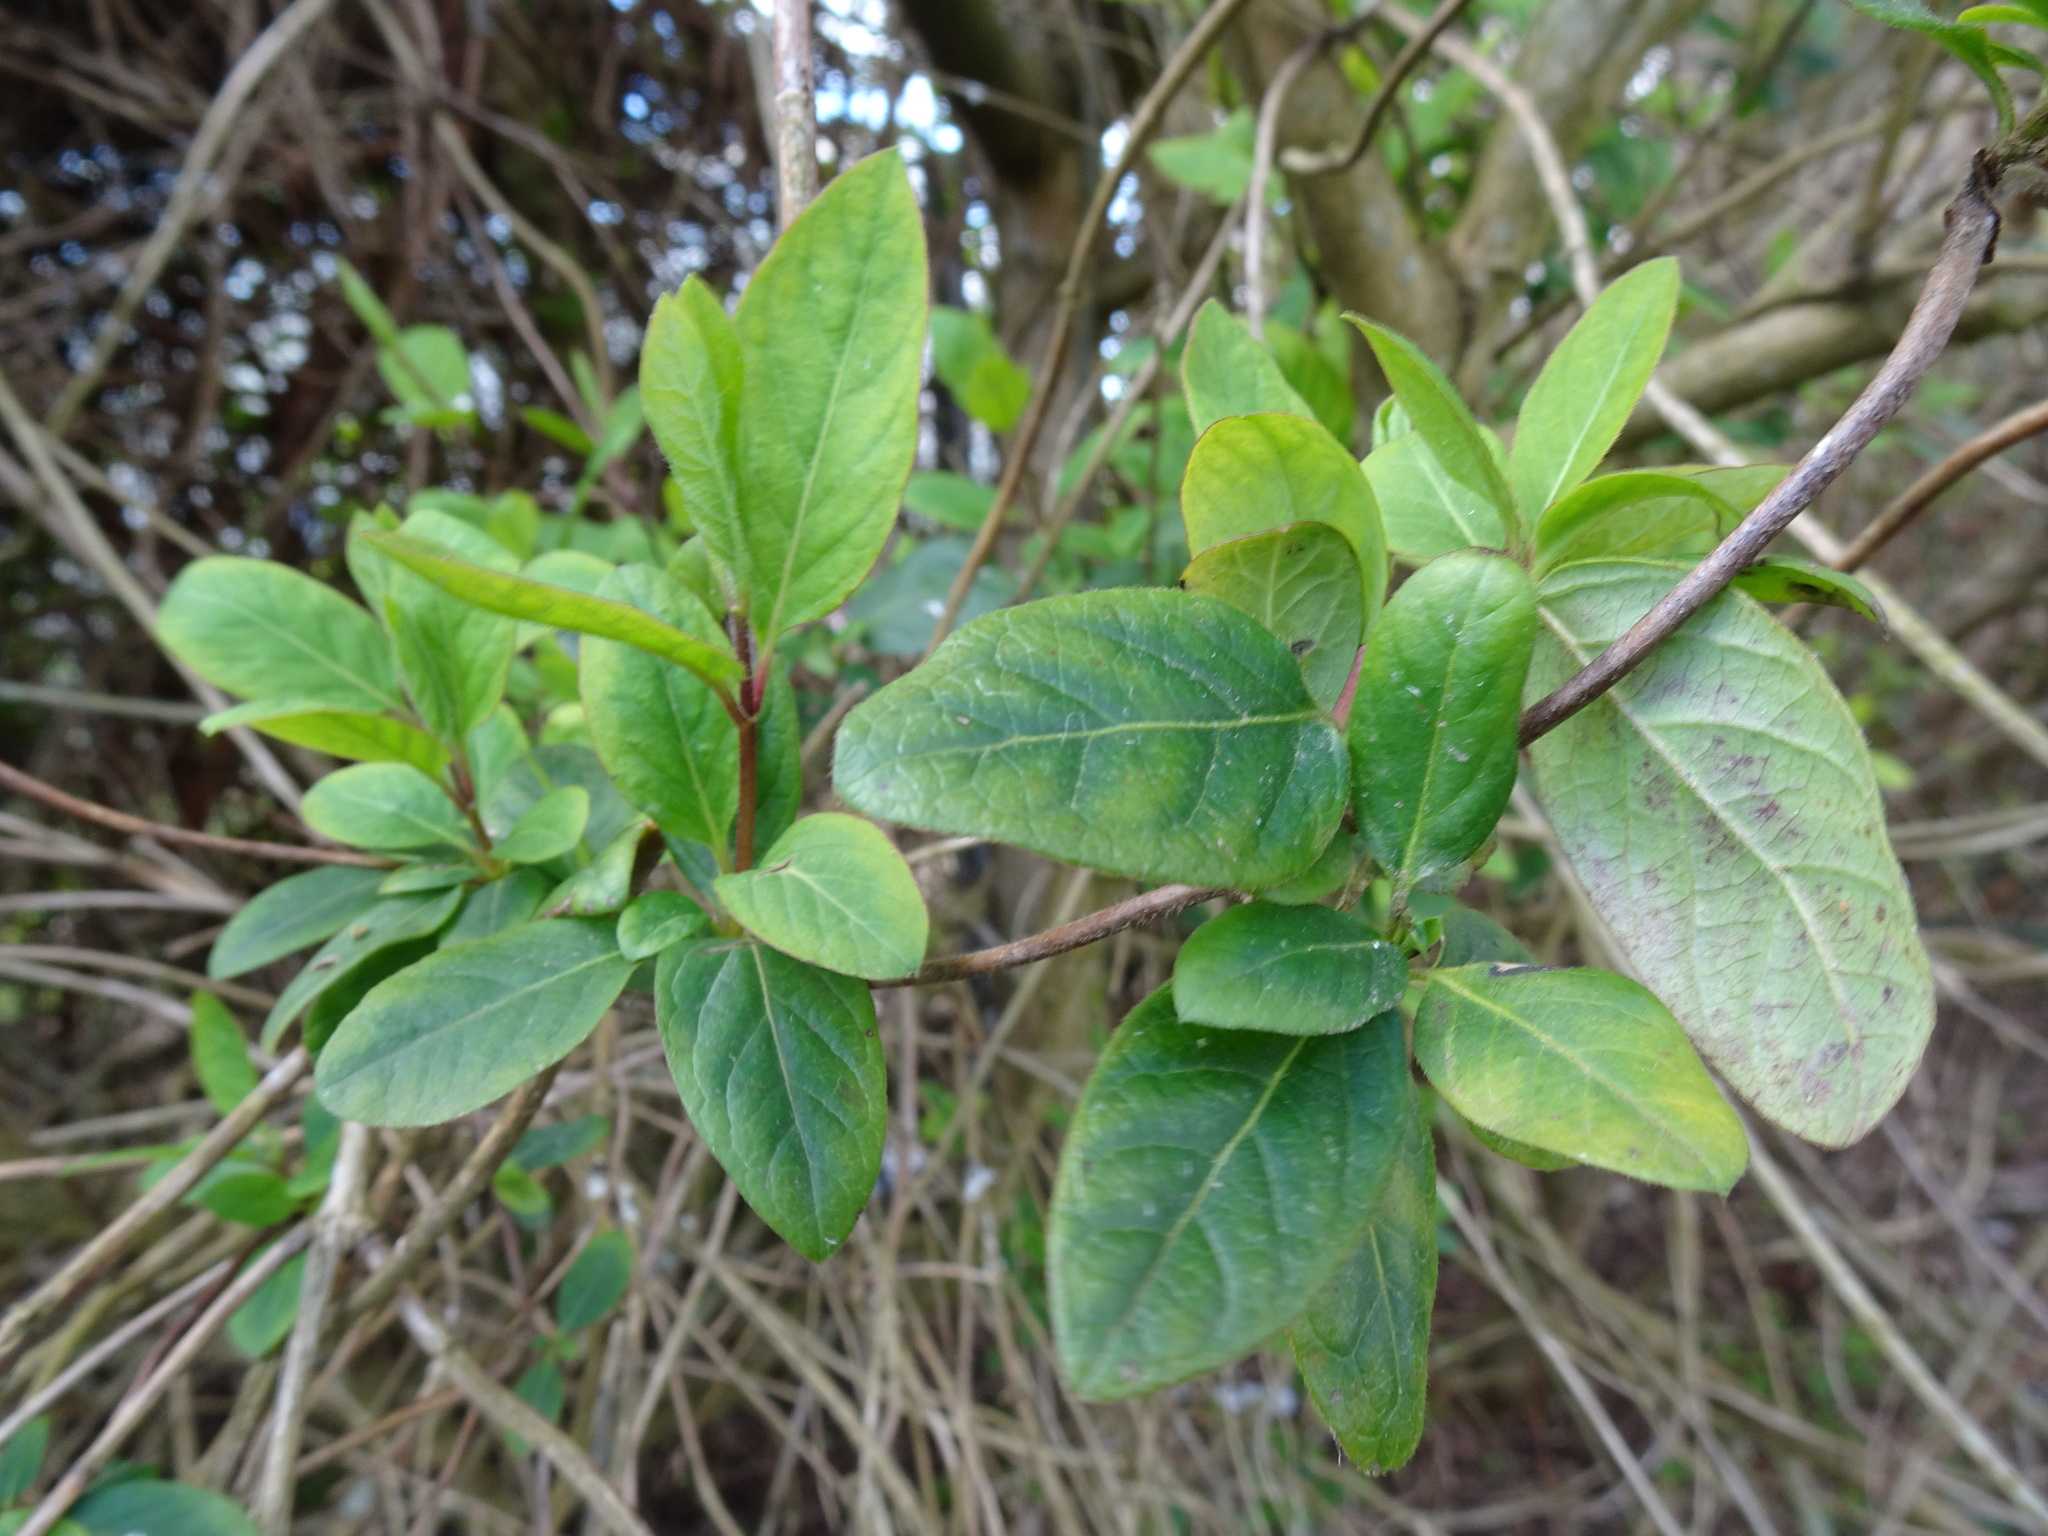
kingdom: Plantae
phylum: Tracheophyta
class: Magnoliopsida
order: Dipsacales
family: Caprifoliaceae
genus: Lonicera
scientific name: Lonicera japonica
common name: Japanese honeysuckle
